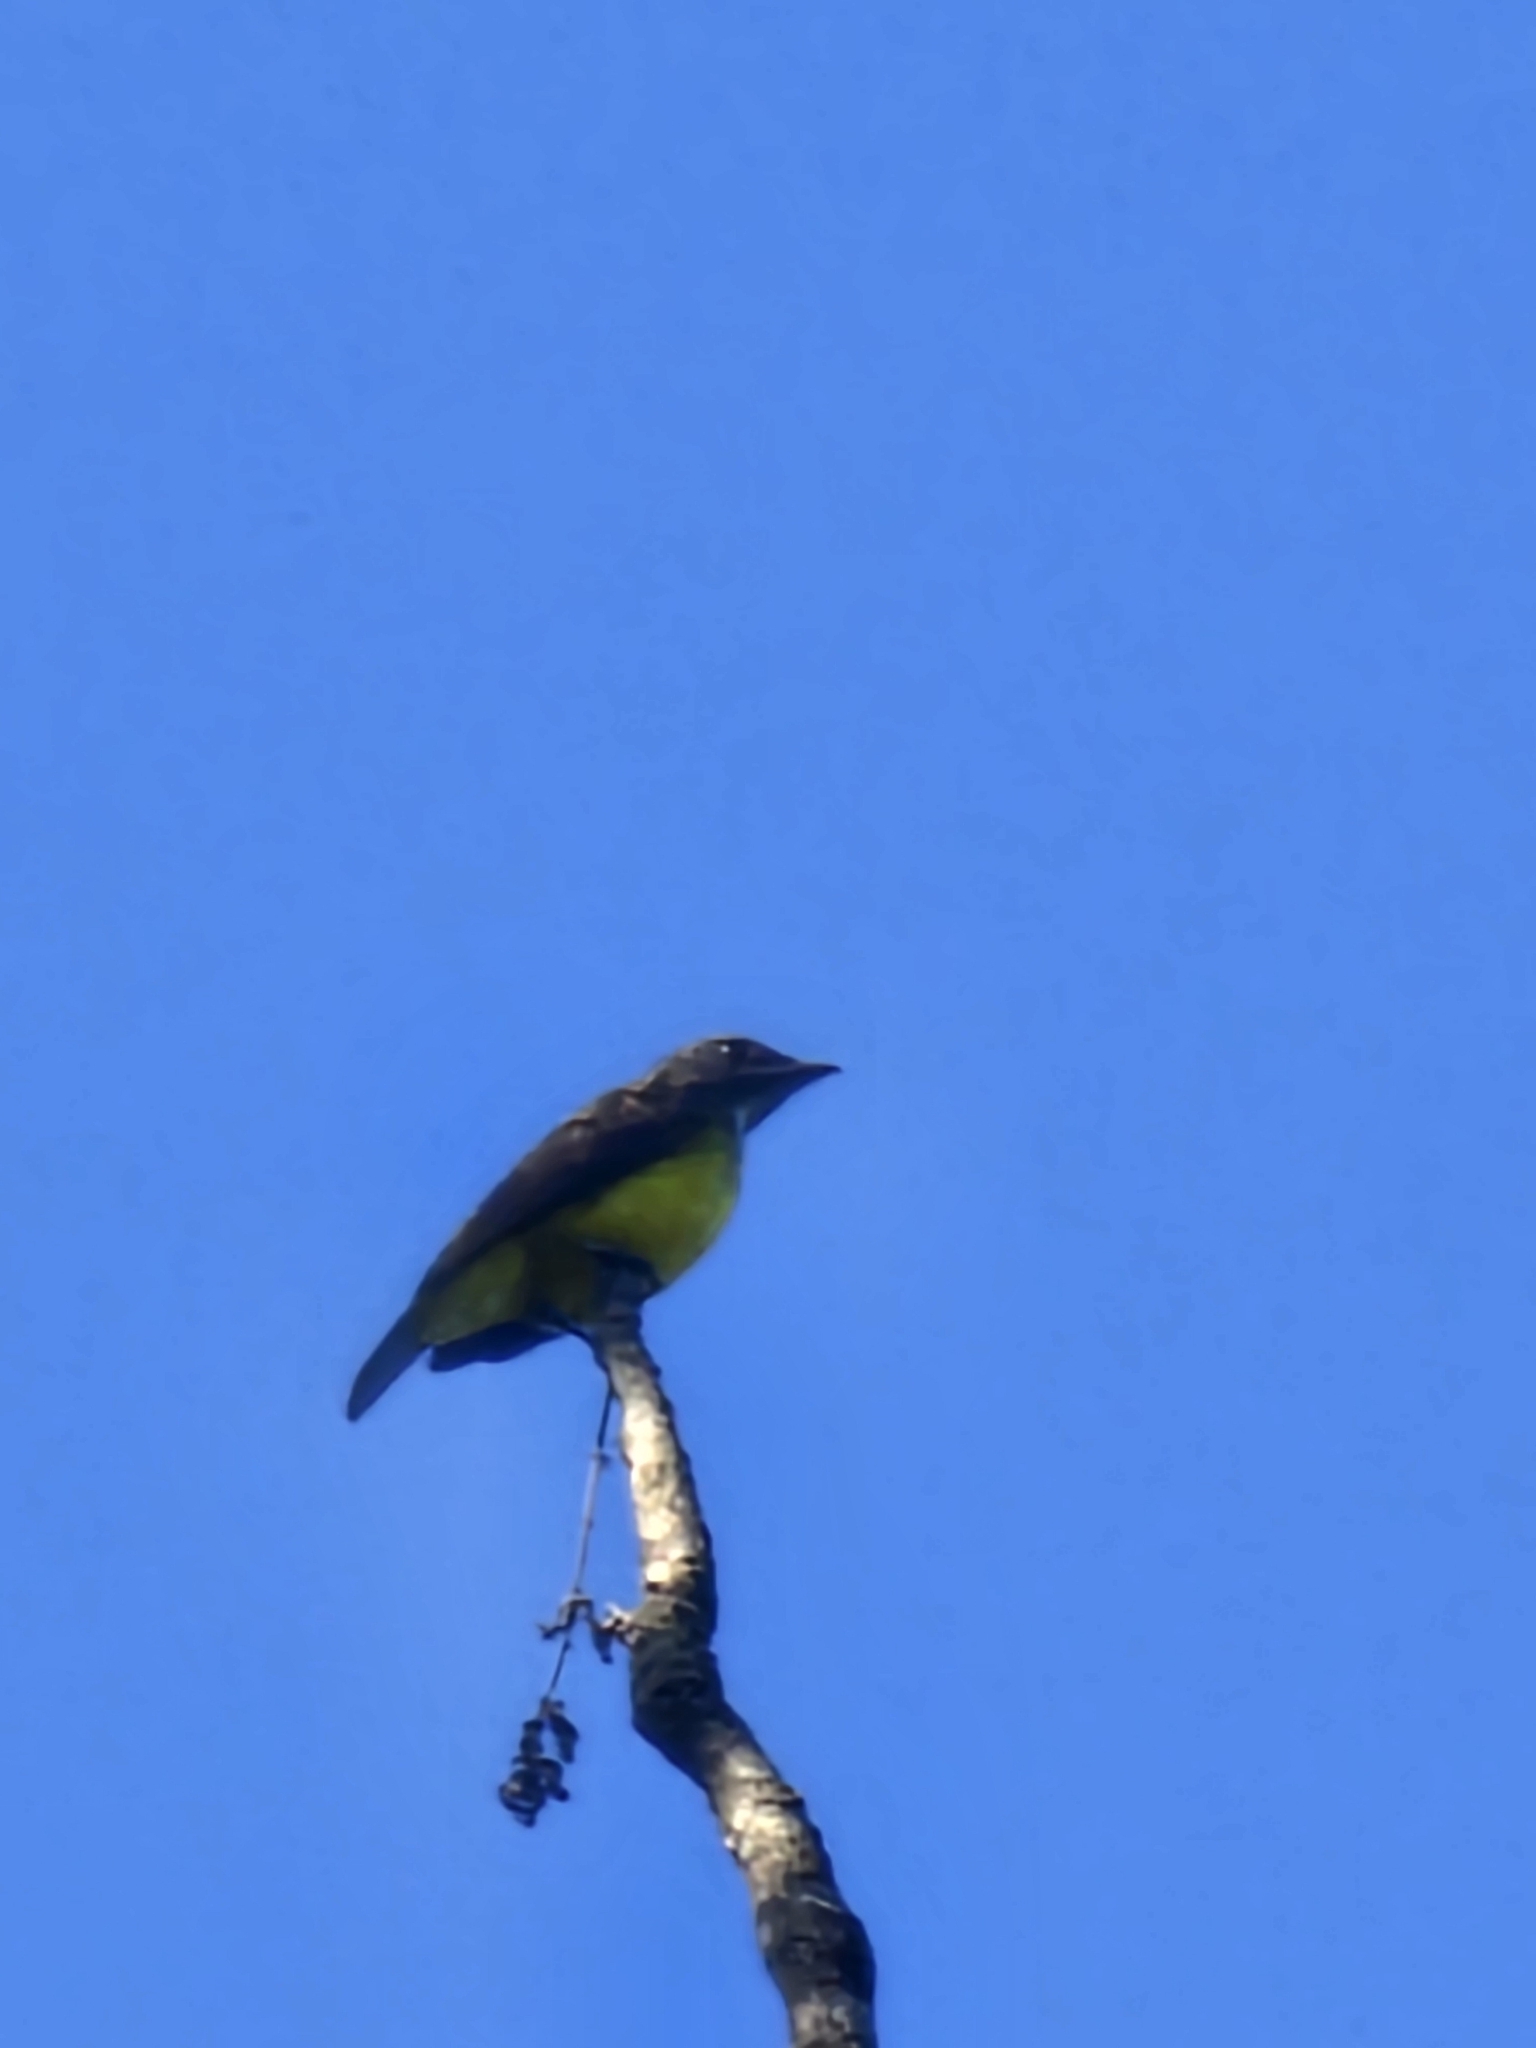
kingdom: Animalia
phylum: Chordata
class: Aves
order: Passeriformes
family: Tyrannidae
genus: Tyrannopsis
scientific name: Tyrannopsis sulphurea
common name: Sulphury flycatcher
